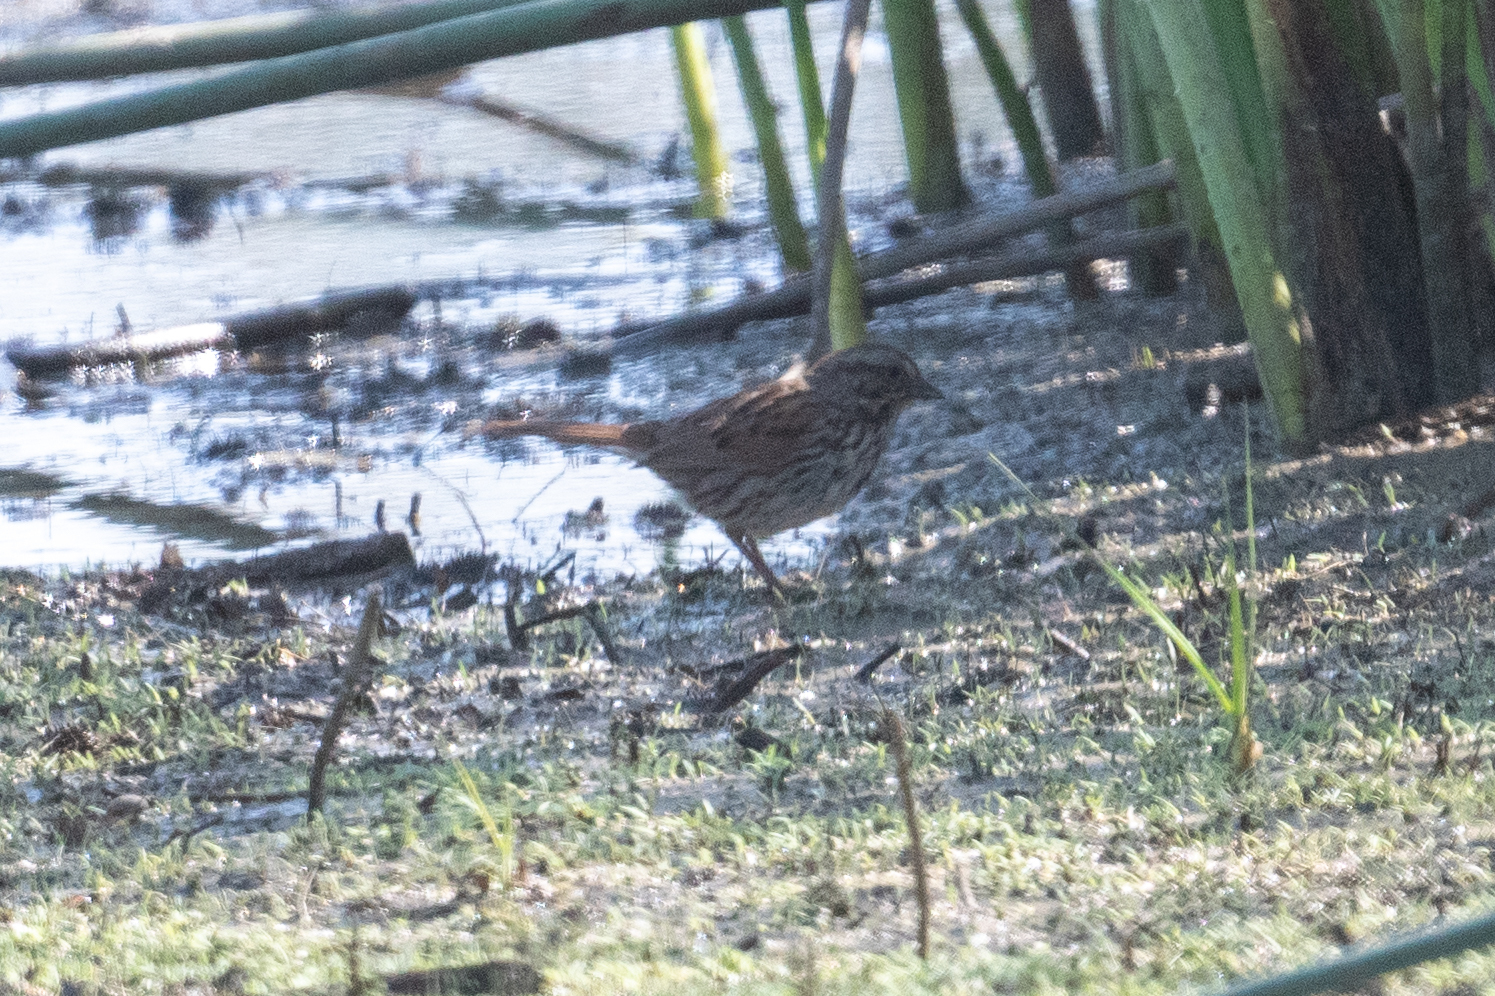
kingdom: Animalia
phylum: Chordata
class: Aves
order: Passeriformes
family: Passerellidae
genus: Melospiza
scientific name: Melospiza melodia
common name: Song sparrow
